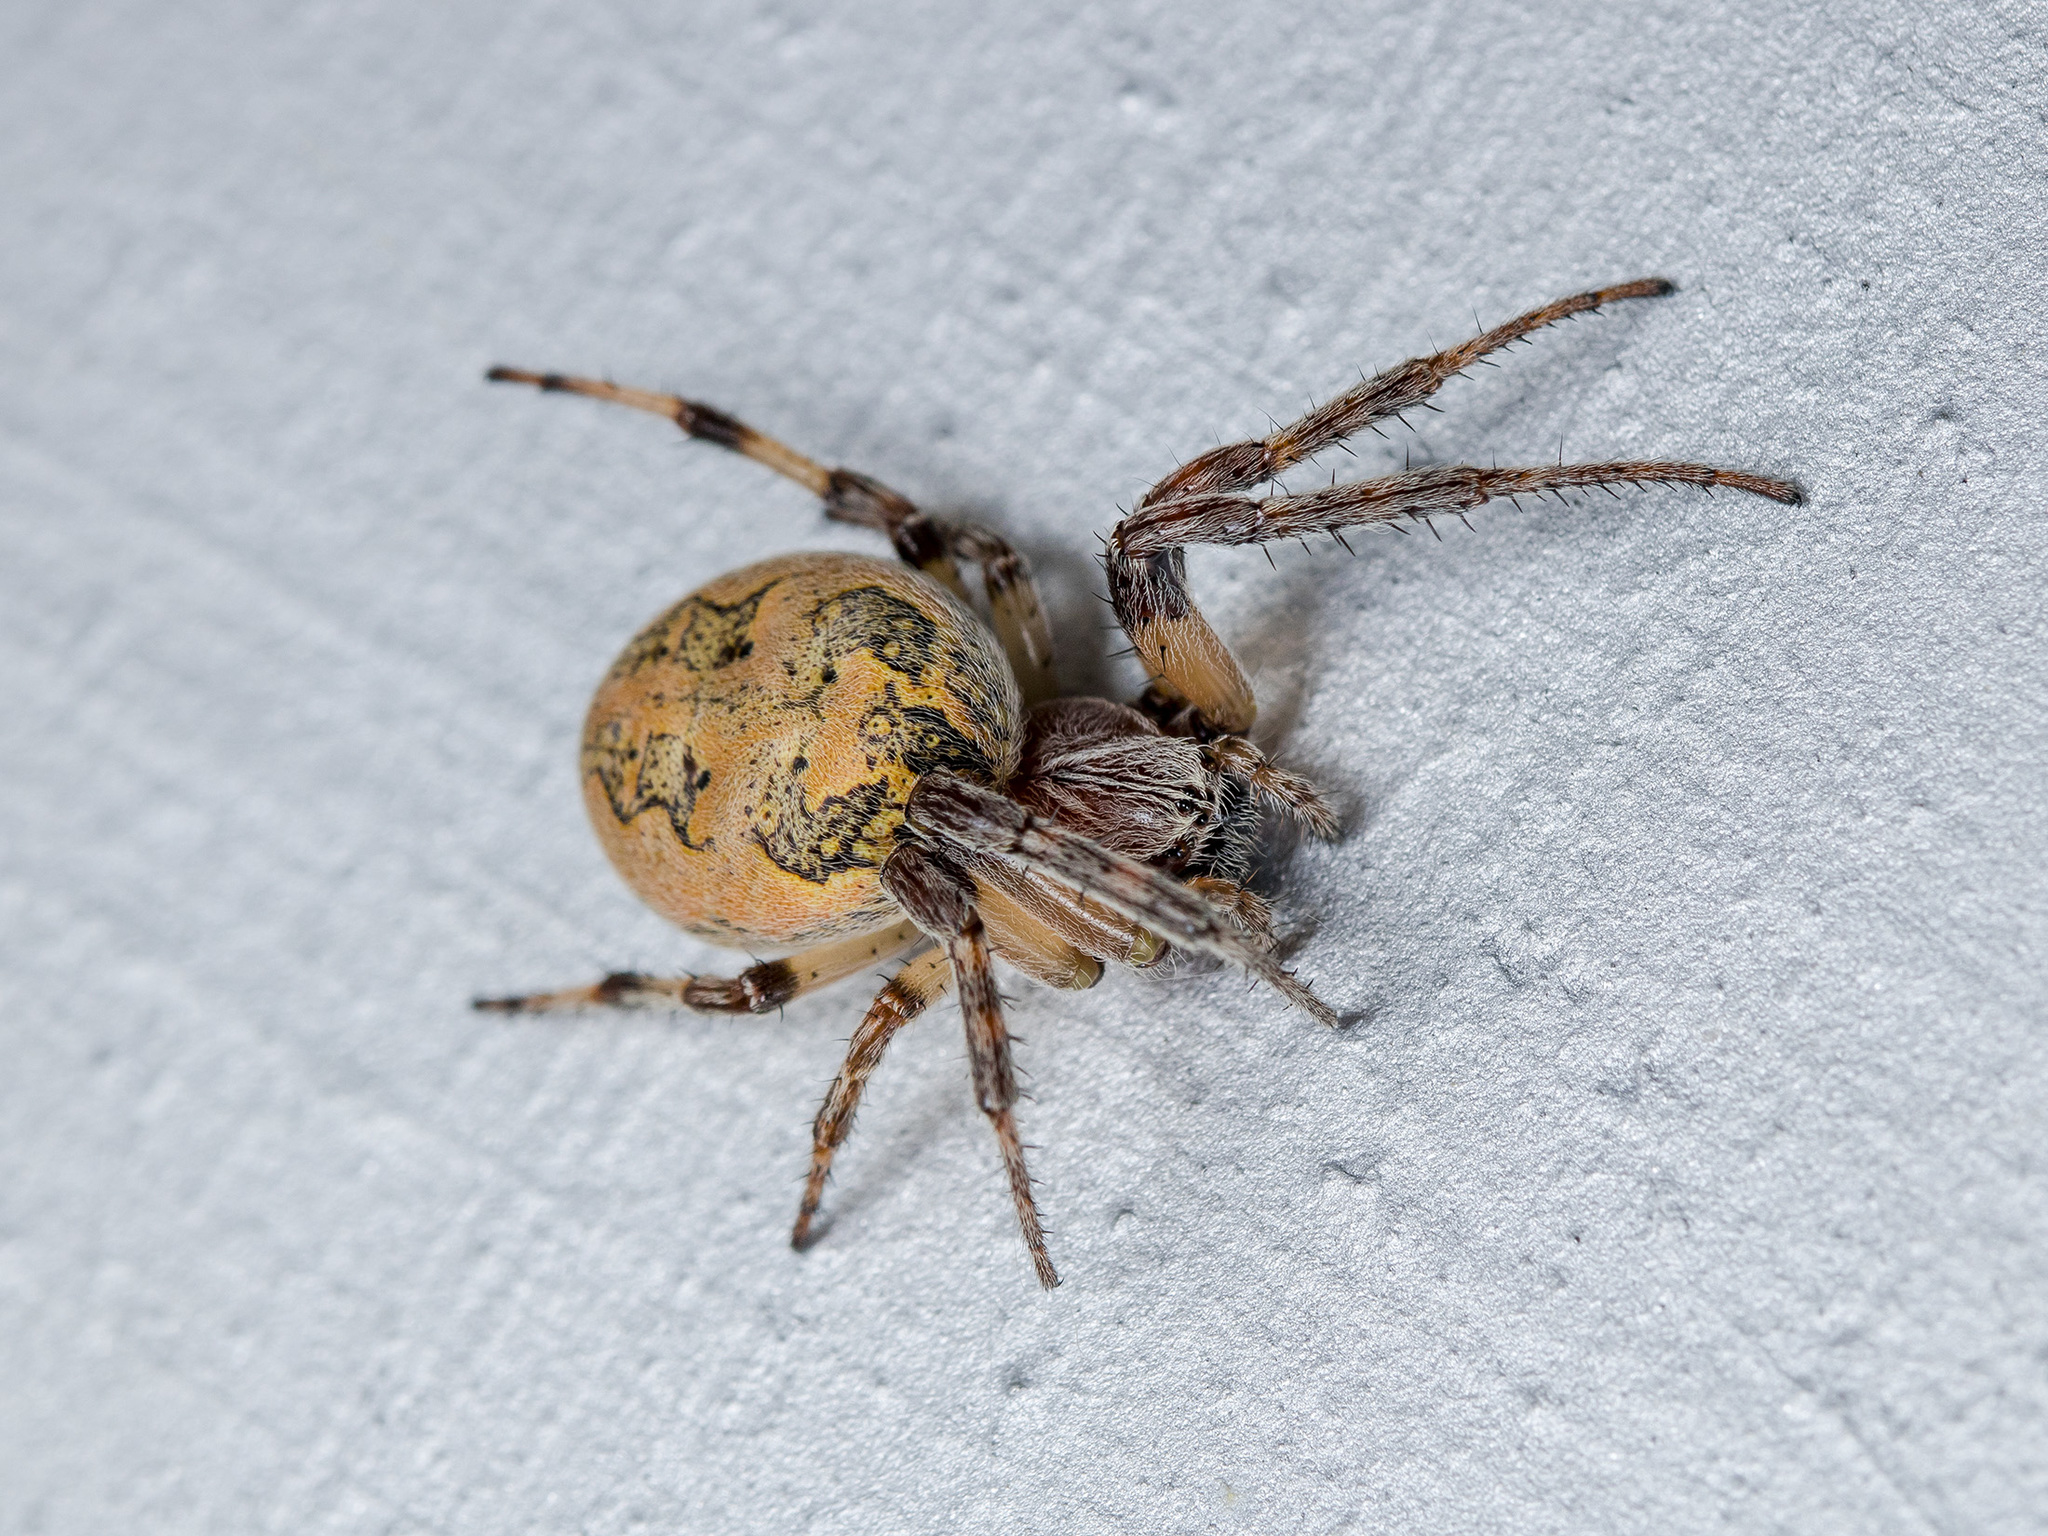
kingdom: Animalia
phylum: Arthropoda
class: Arachnida
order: Araneae
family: Araneidae
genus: Larinioides
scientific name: Larinioides suspicax
